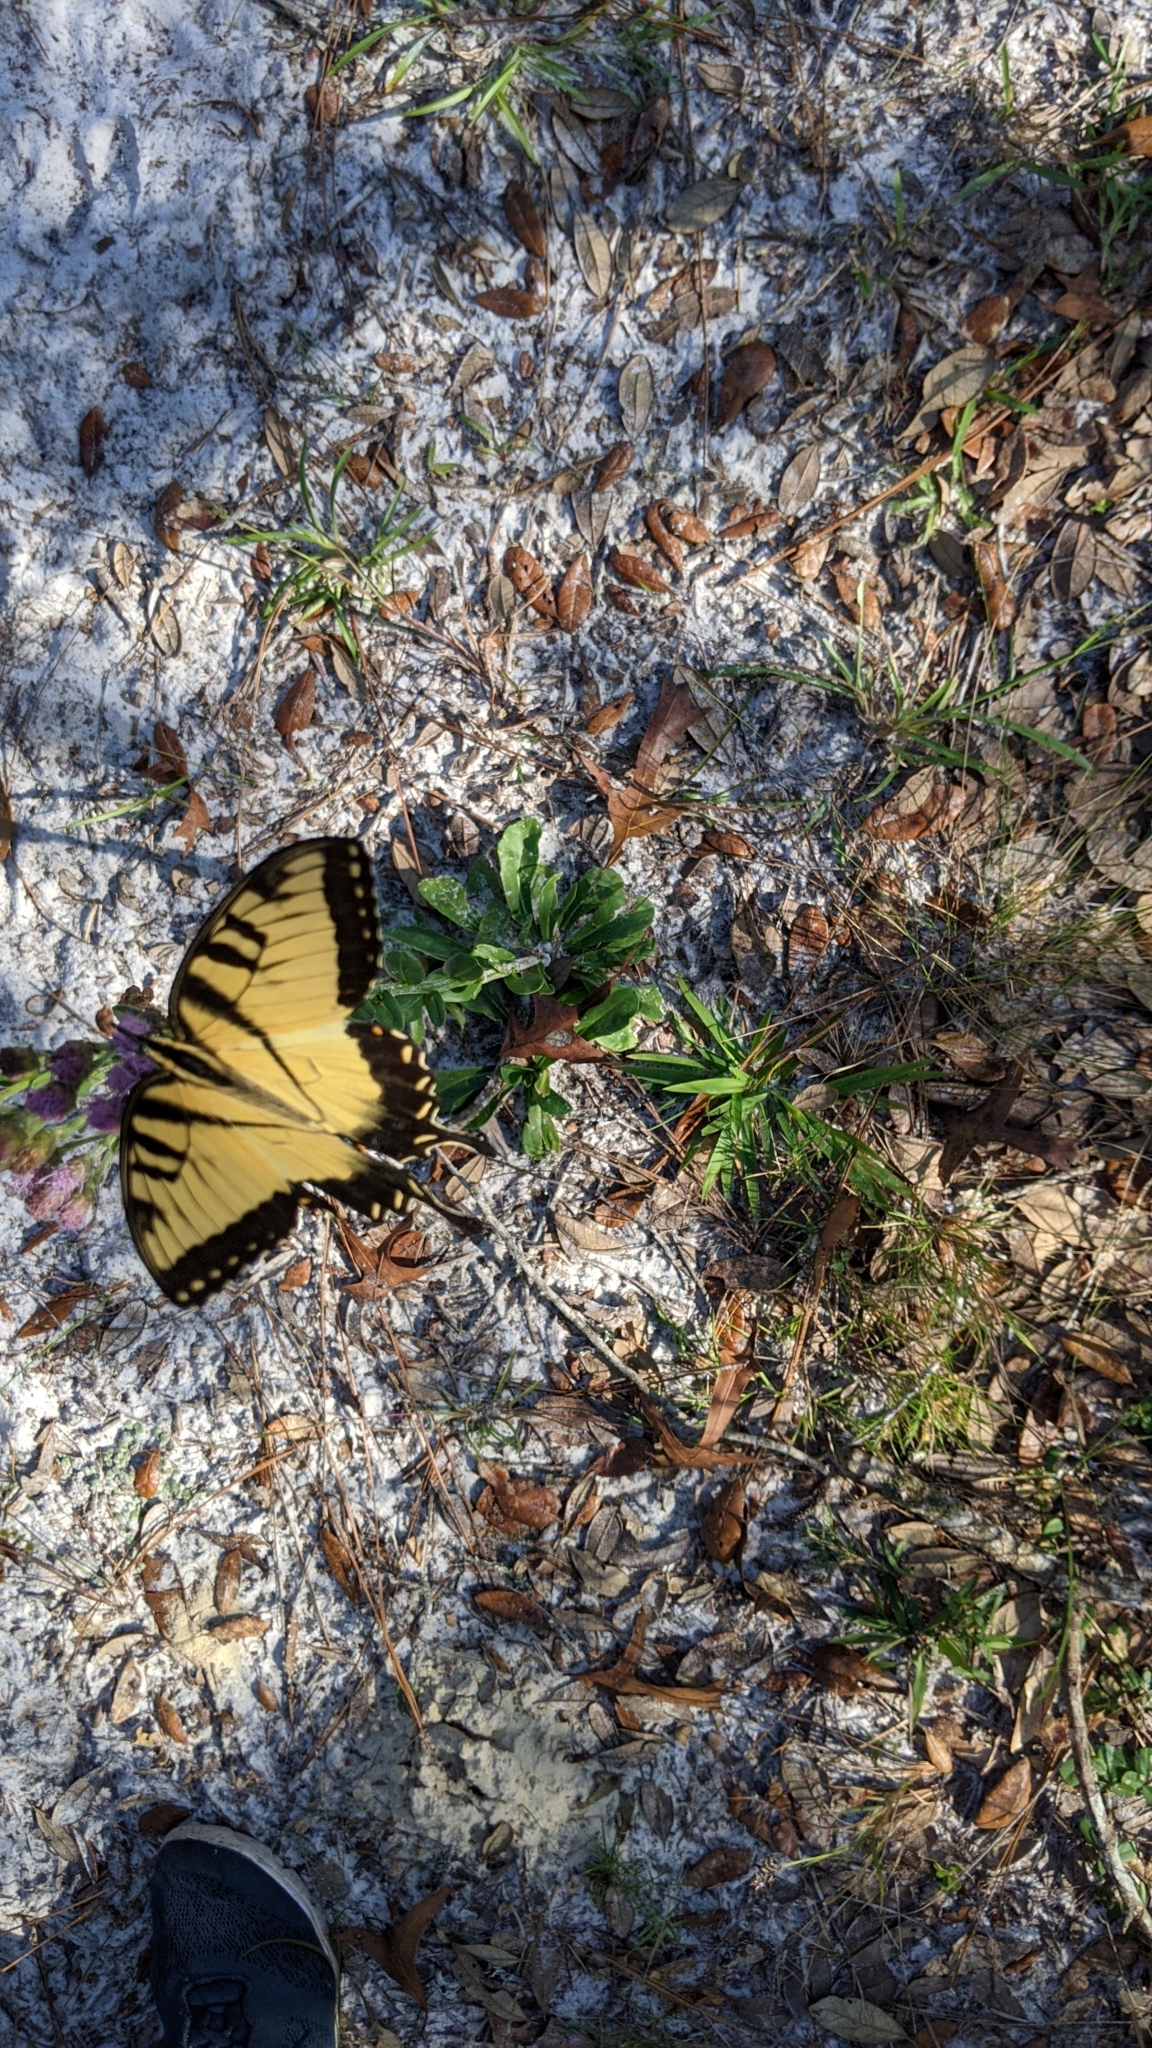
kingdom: Animalia
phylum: Arthropoda
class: Insecta
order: Lepidoptera
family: Papilionidae
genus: Papilio
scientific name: Papilio glaucus
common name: Tiger swallowtail
